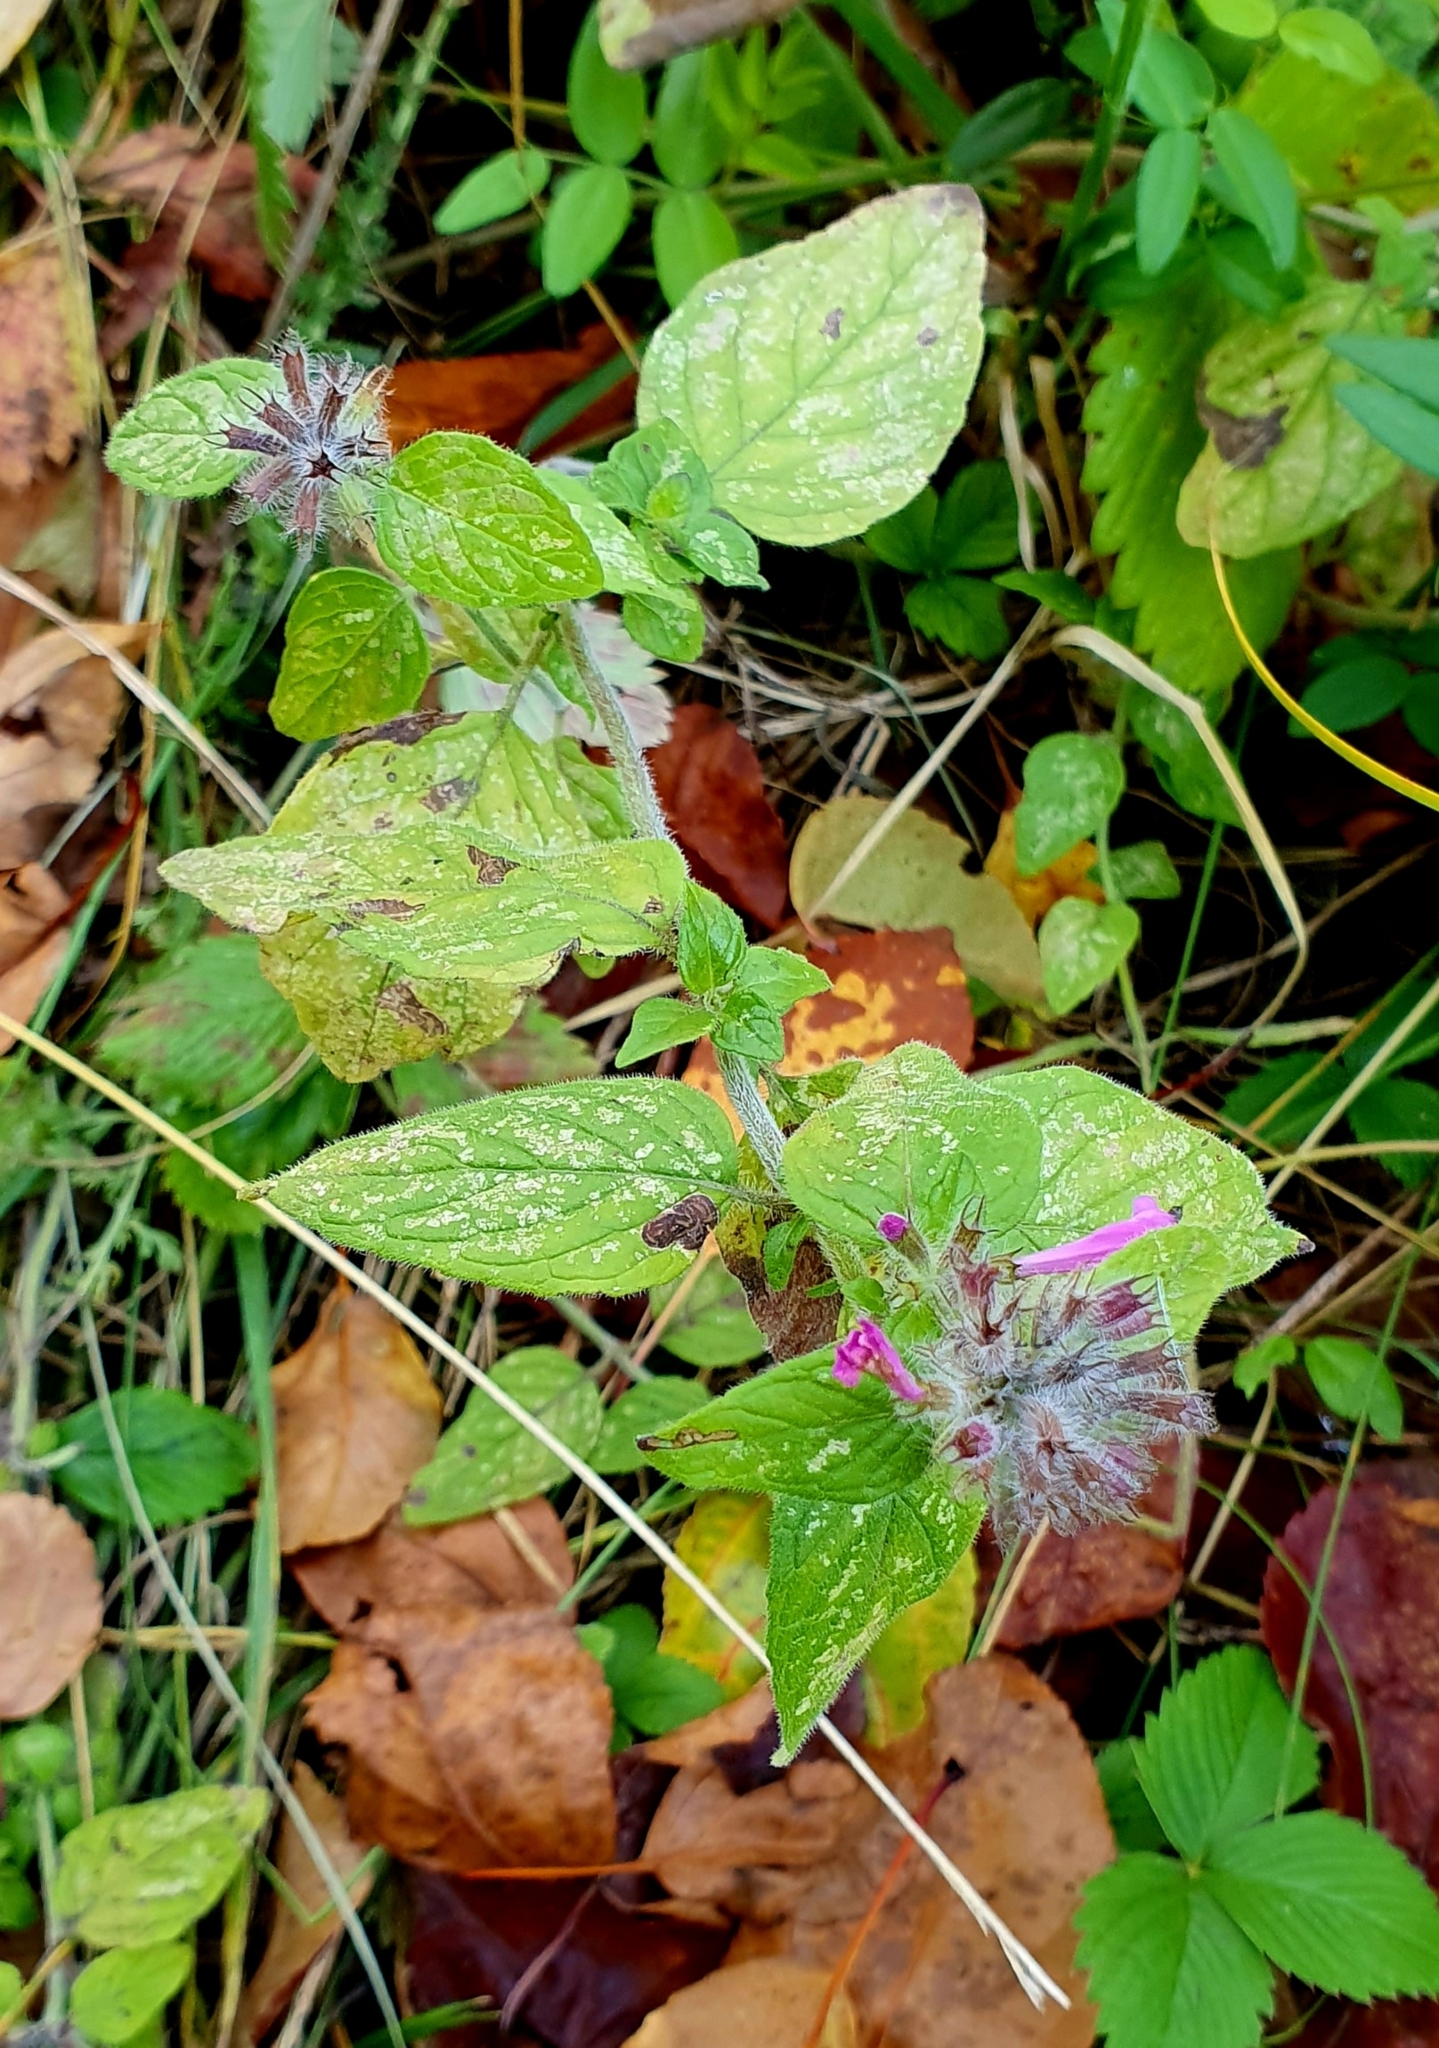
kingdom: Plantae
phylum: Tracheophyta
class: Magnoliopsida
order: Lamiales
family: Lamiaceae
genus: Clinopodium
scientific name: Clinopodium vulgare
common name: Wild basil
